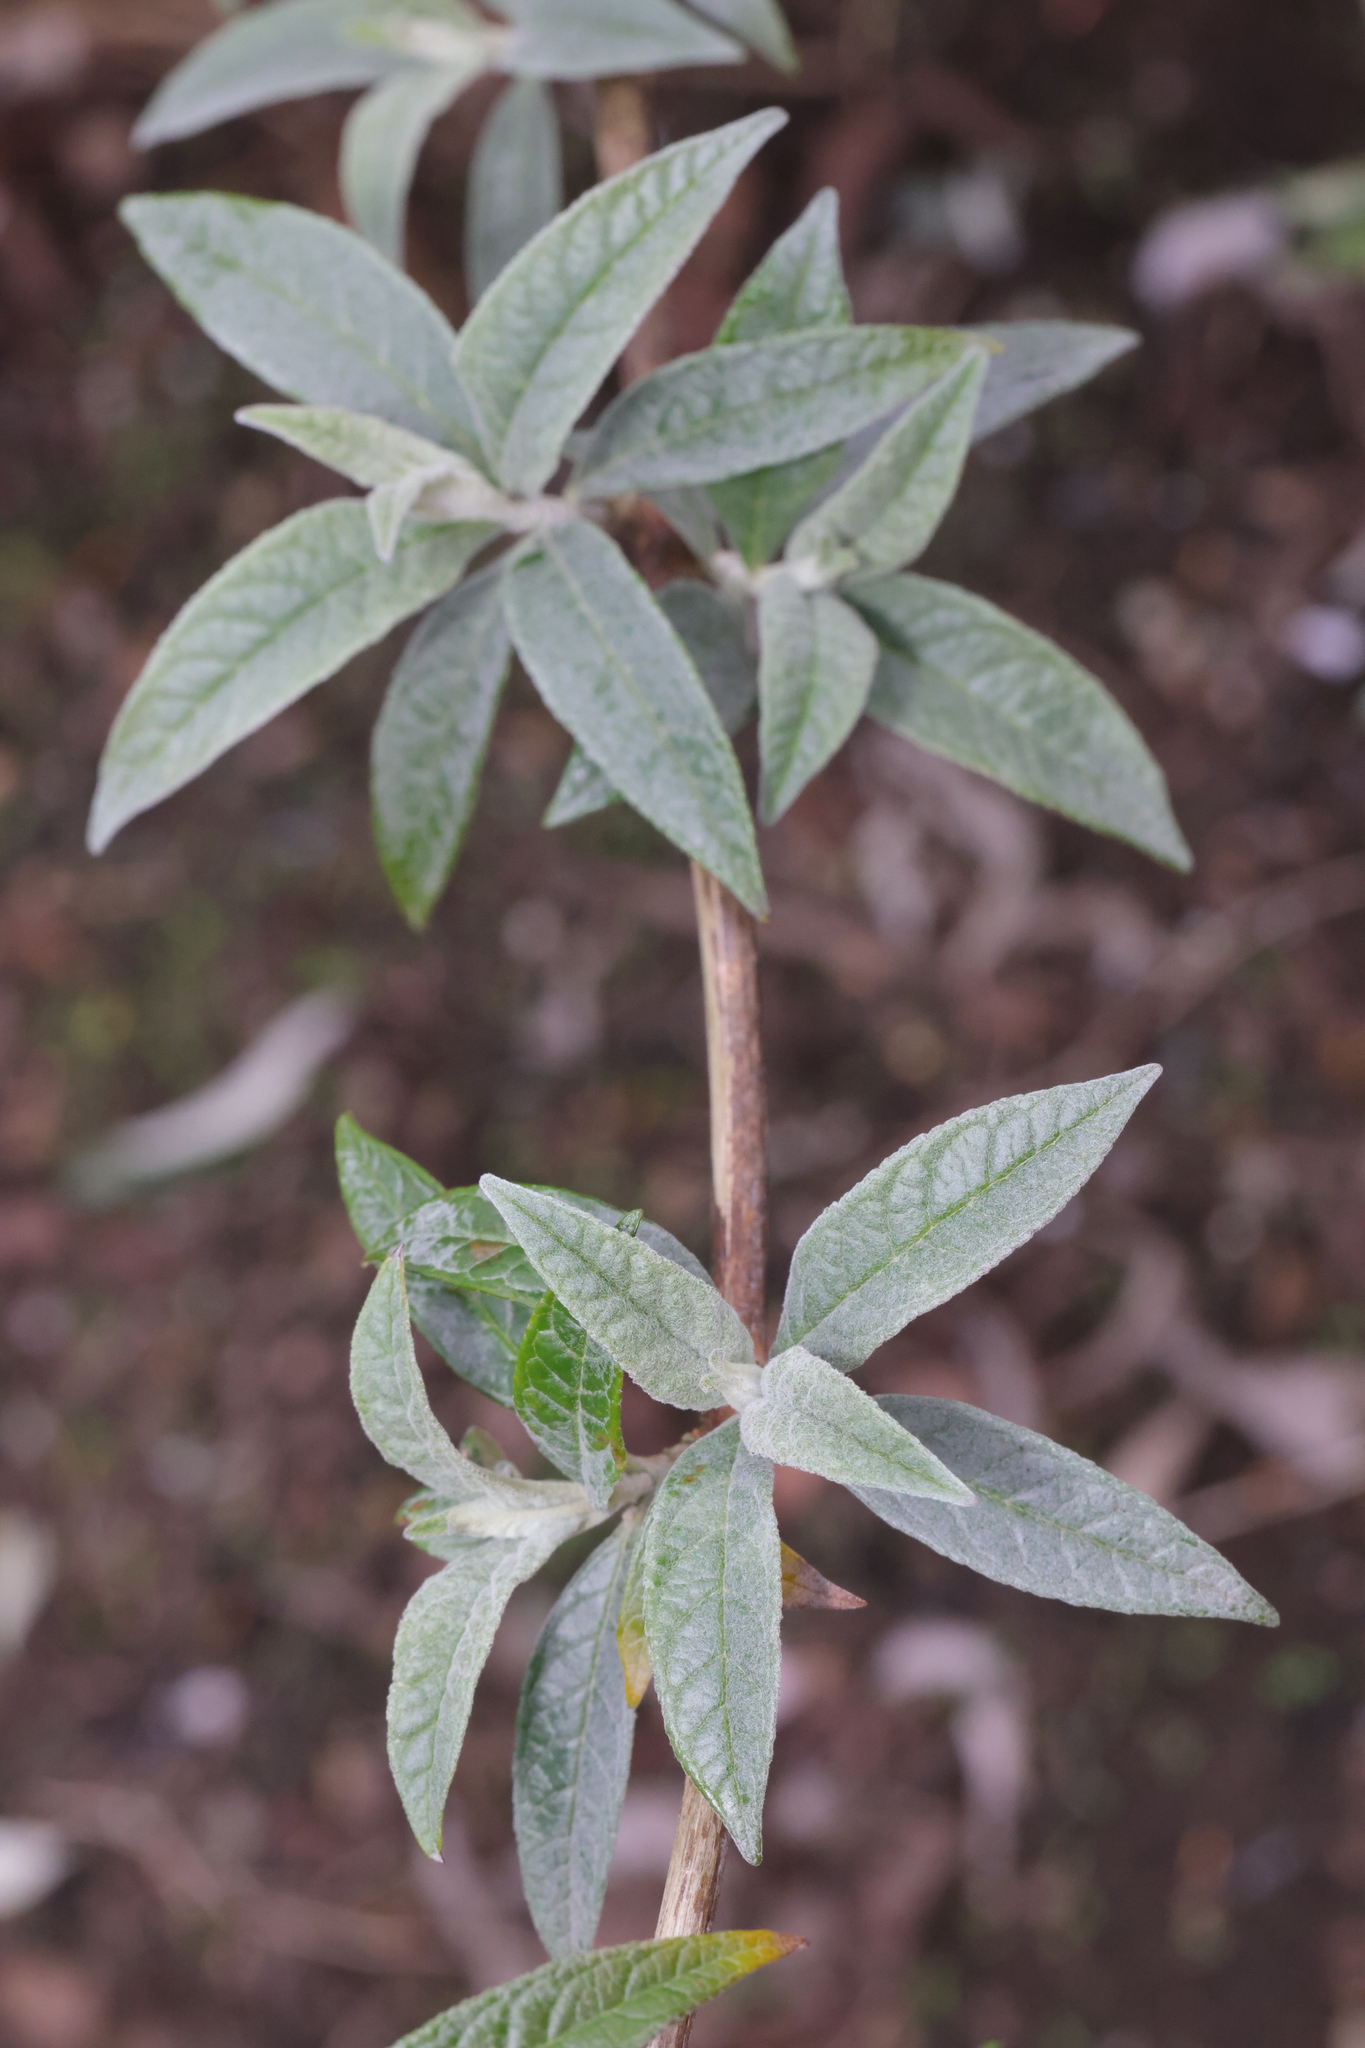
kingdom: Plantae
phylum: Tracheophyta
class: Magnoliopsida
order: Lamiales
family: Scrophulariaceae
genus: Buddleja
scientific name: Buddleja davidii
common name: Butterfly-bush
